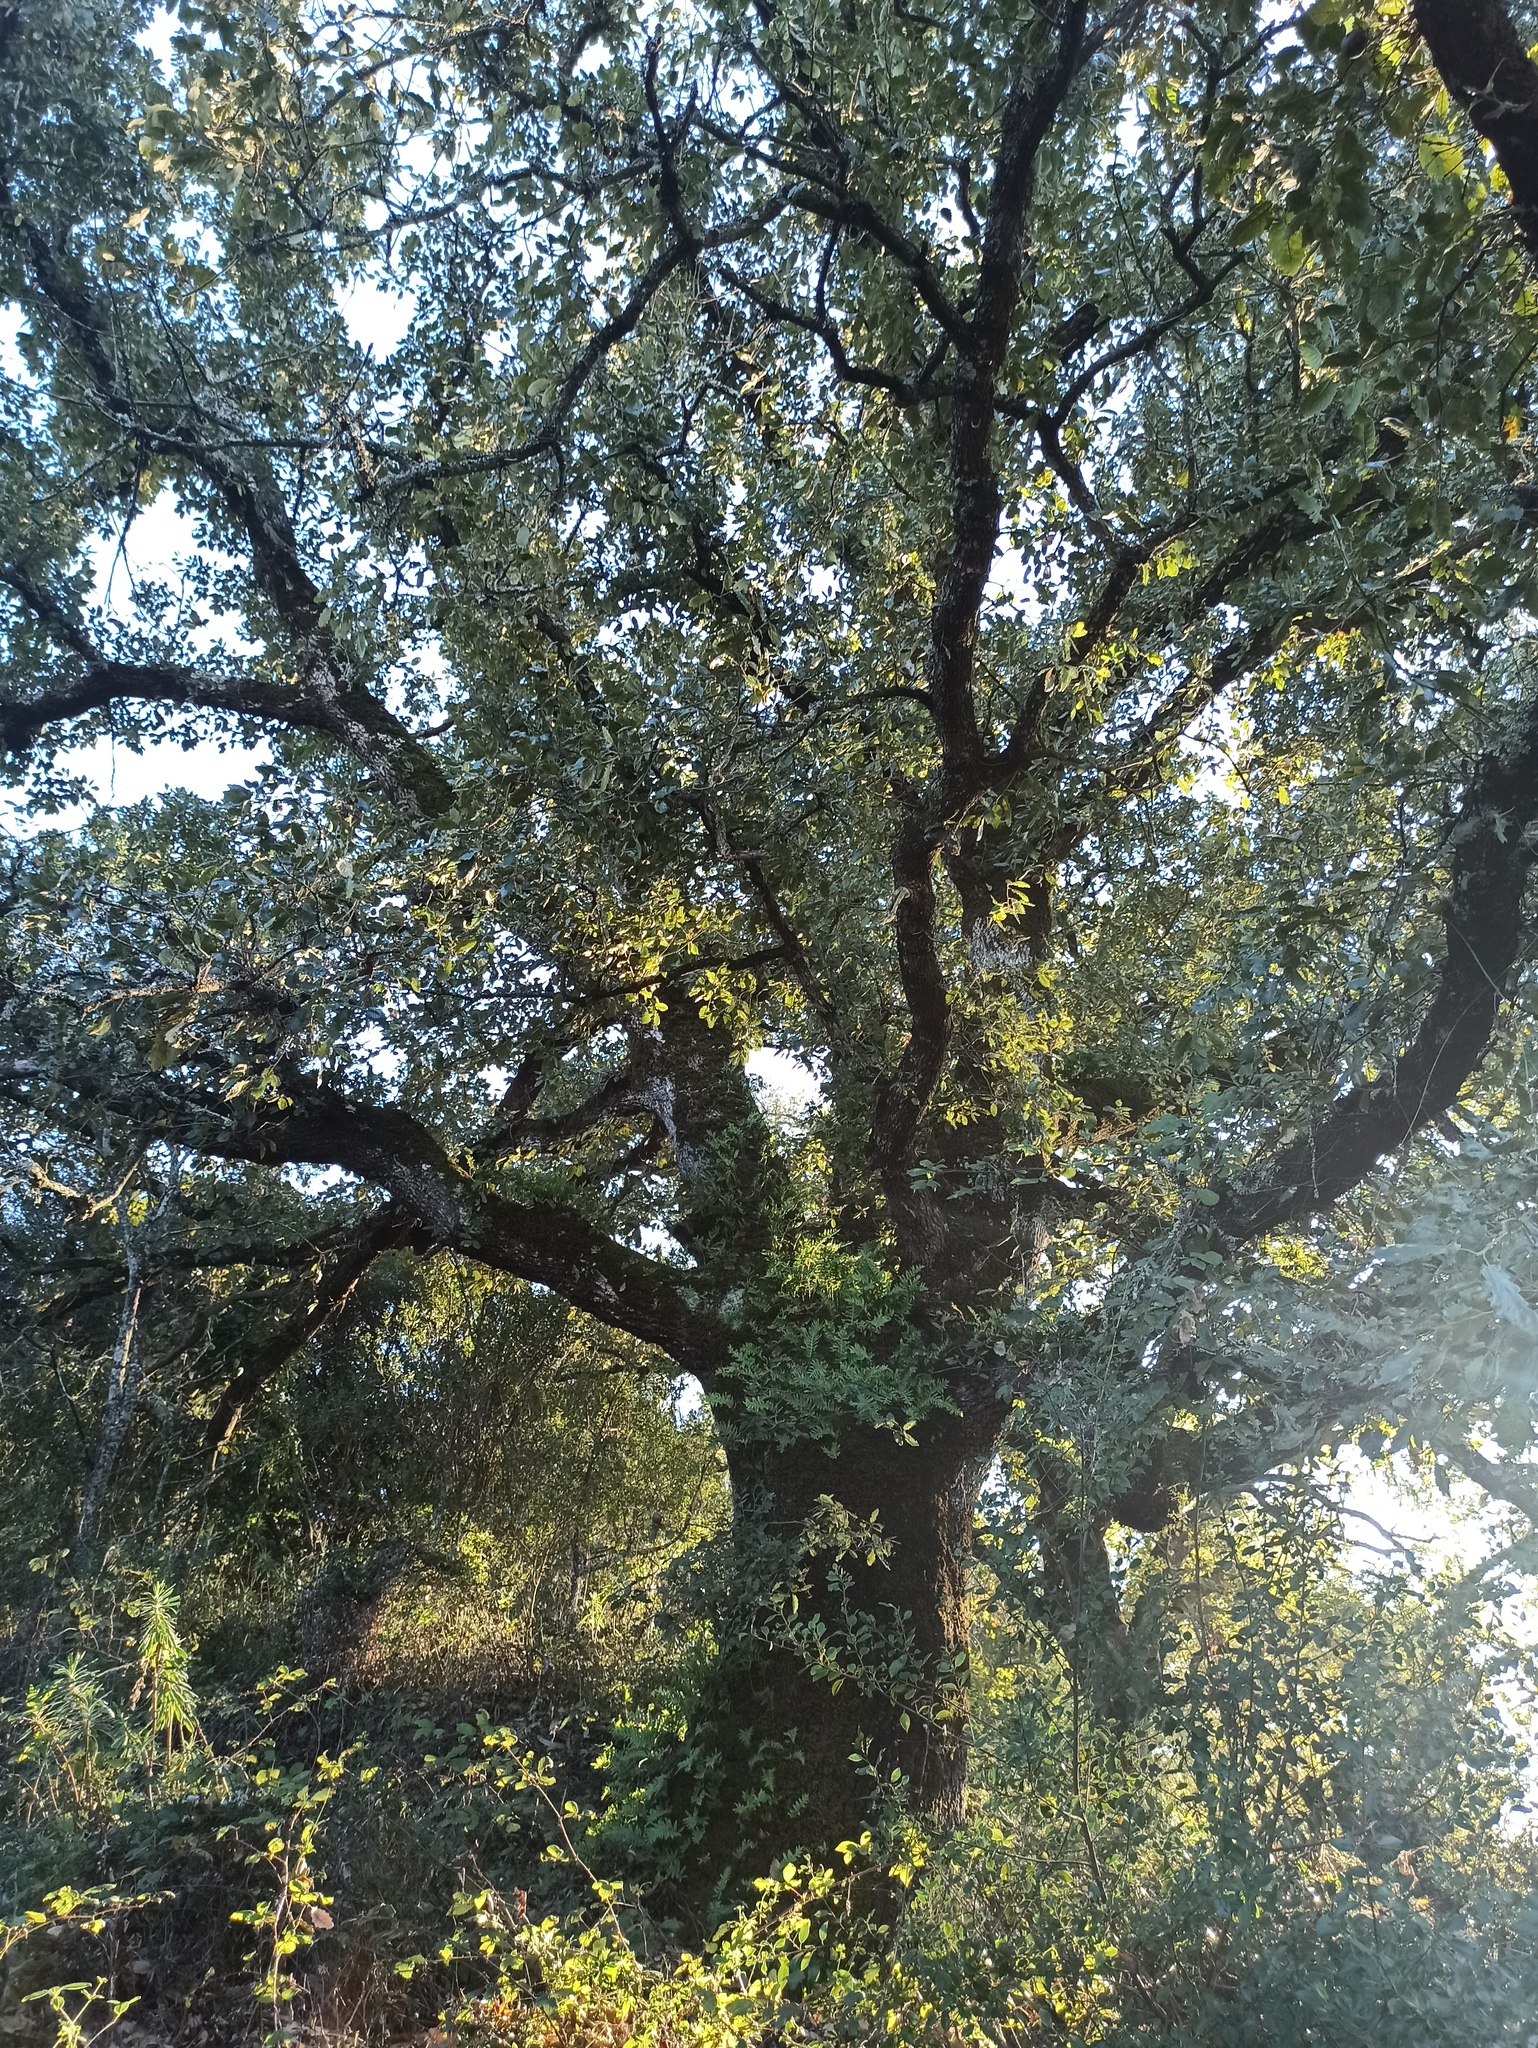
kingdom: Plantae
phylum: Tracheophyta
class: Magnoliopsida
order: Fagales
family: Fagaceae
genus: Quercus
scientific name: Quercus faginea
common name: Gall oak tree
